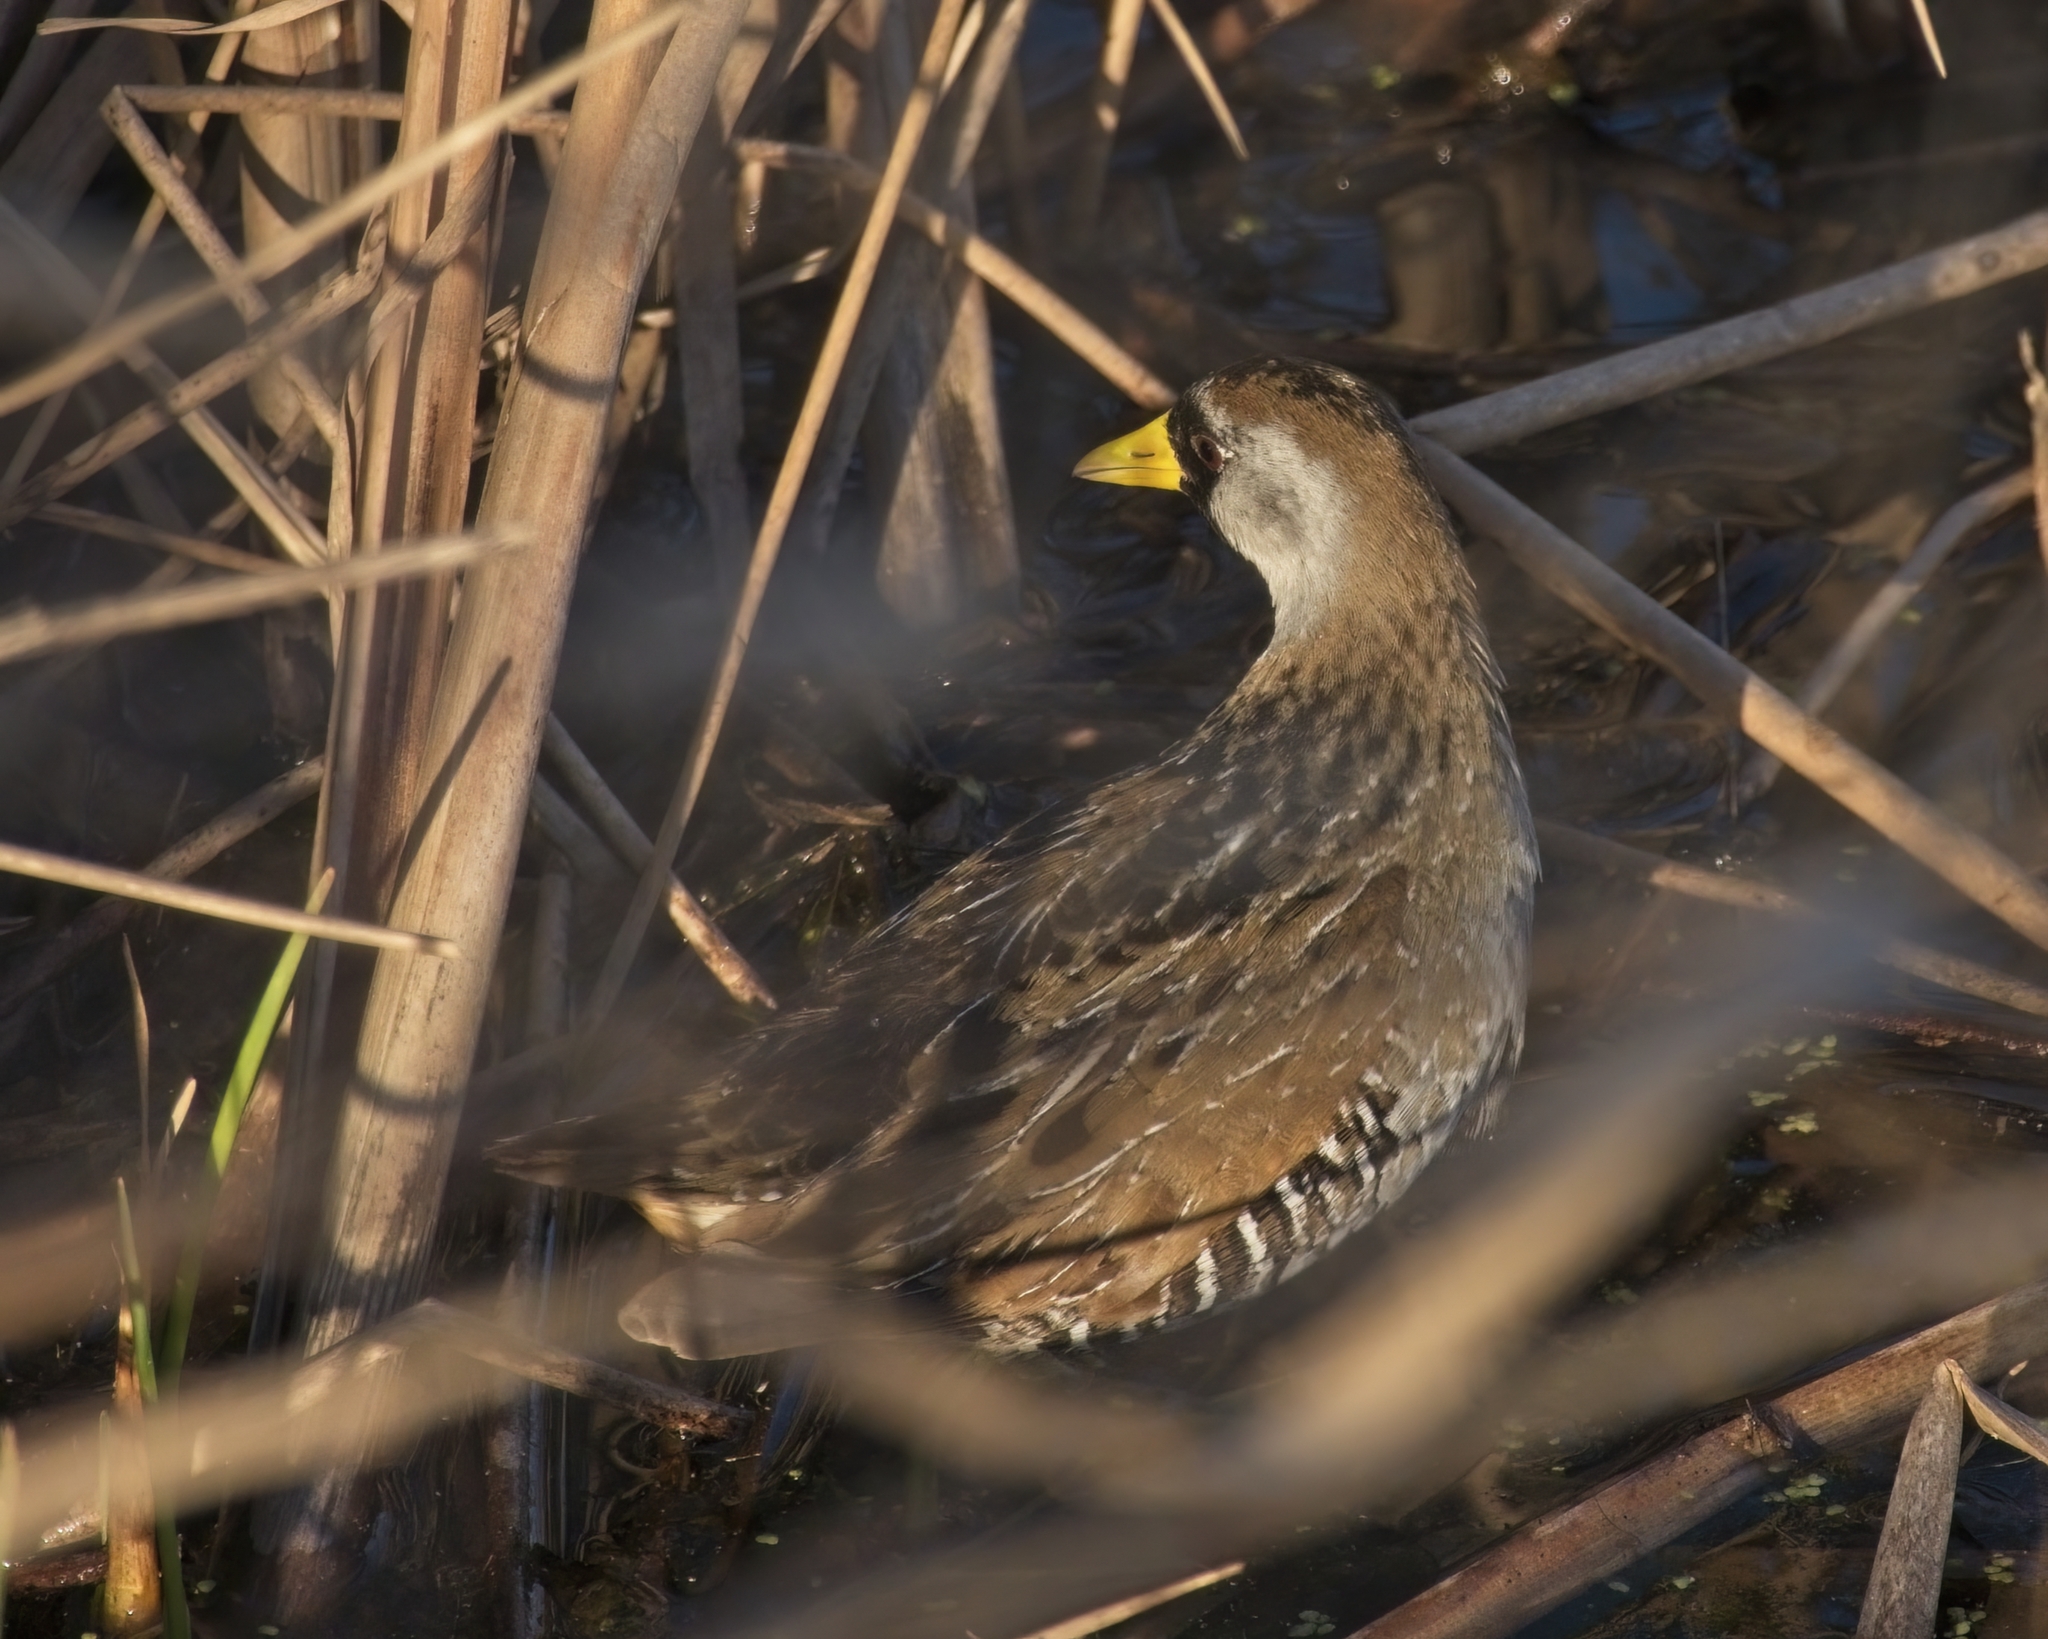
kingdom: Animalia
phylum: Chordata
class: Aves
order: Gruiformes
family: Rallidae
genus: Porzana
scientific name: Porzana carolina
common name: Sora
